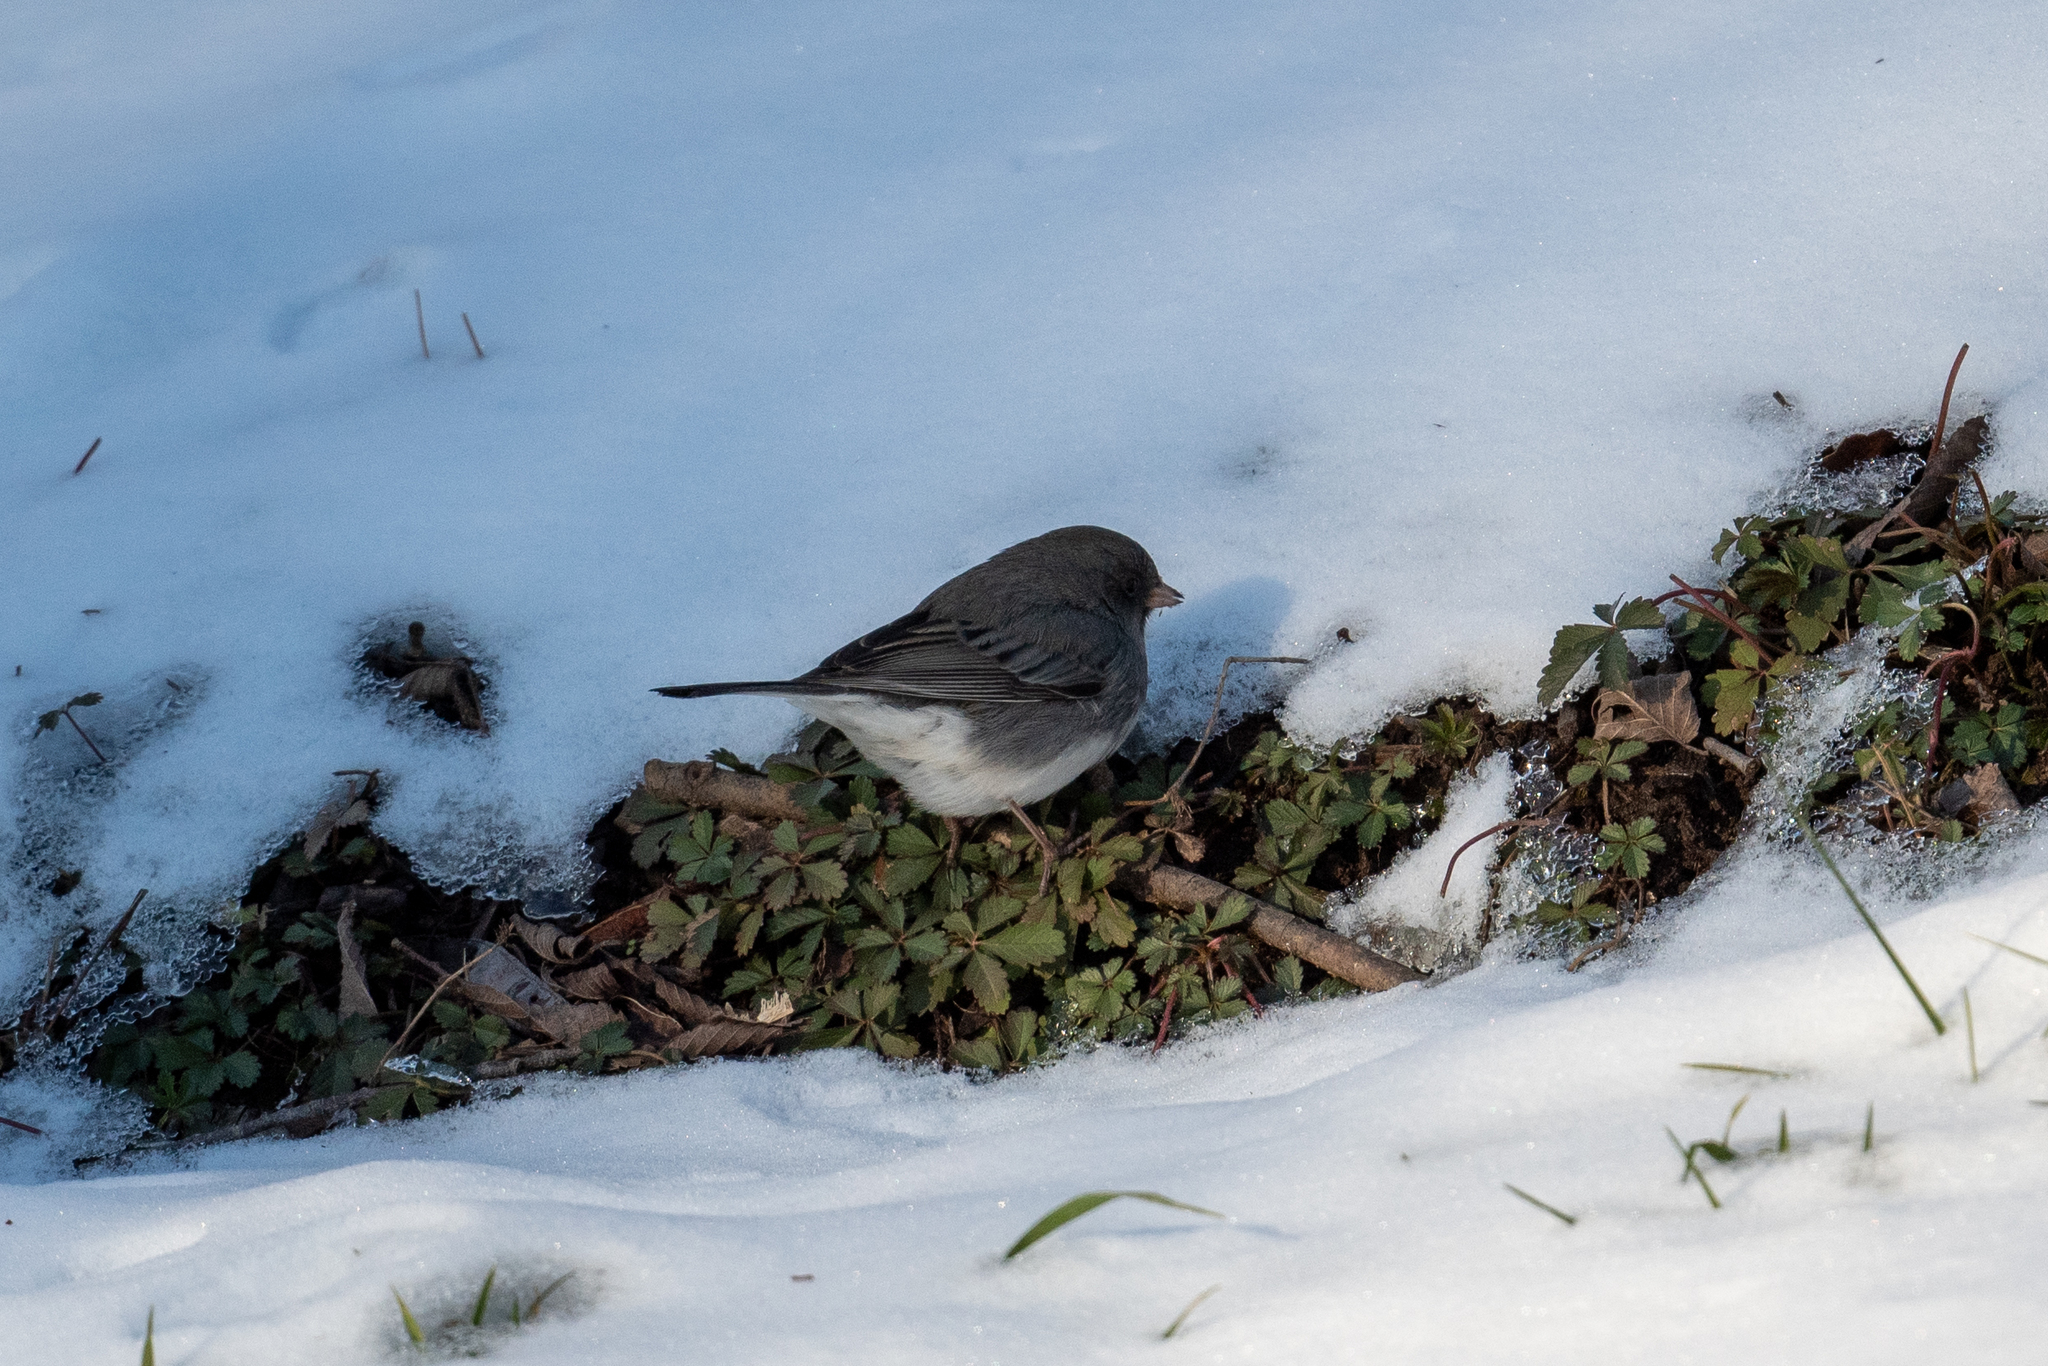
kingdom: Animalia
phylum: Chordata
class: Aves
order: Passeriformes
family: Passerellidae
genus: Junco
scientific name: Junco hyemalis
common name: Dark-eyed junco
